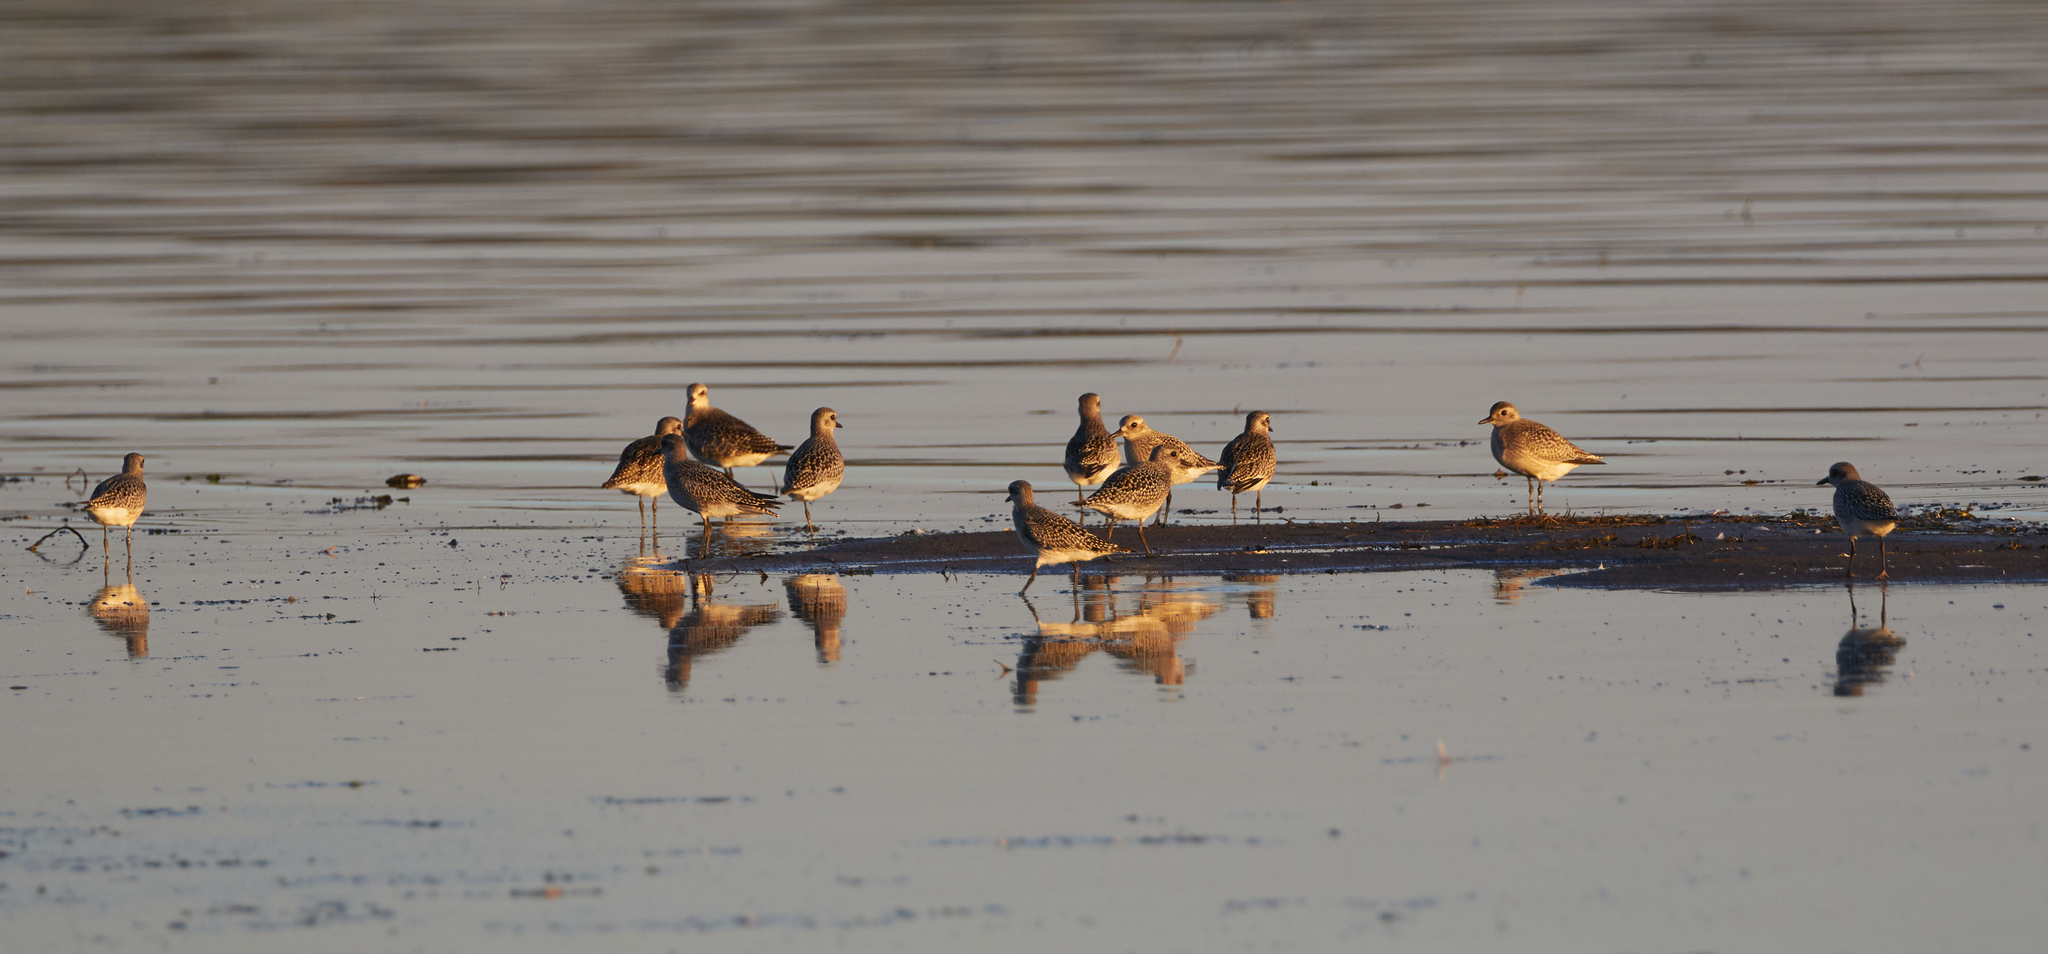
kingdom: Animalia
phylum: Chordata
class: Aves
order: Charadriiformes
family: Charadriidae
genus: Pluvialis
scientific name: Pluvialis squatarola
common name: Grey plover
